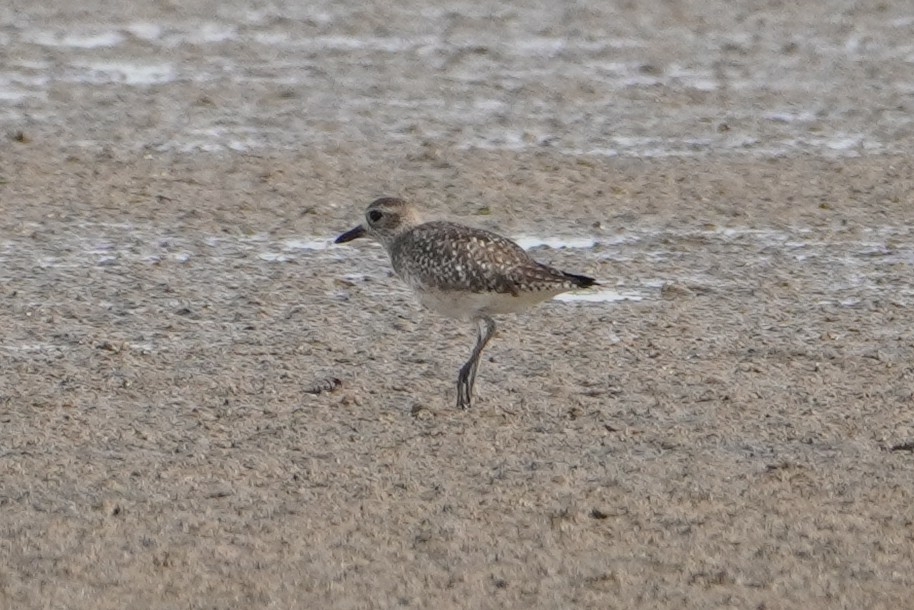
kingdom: Animalia
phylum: Chordata
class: Aves
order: Charadriiformes
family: Charadriidae
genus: Pluvialis
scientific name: Pluvialis squatarola
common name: Grey plover
